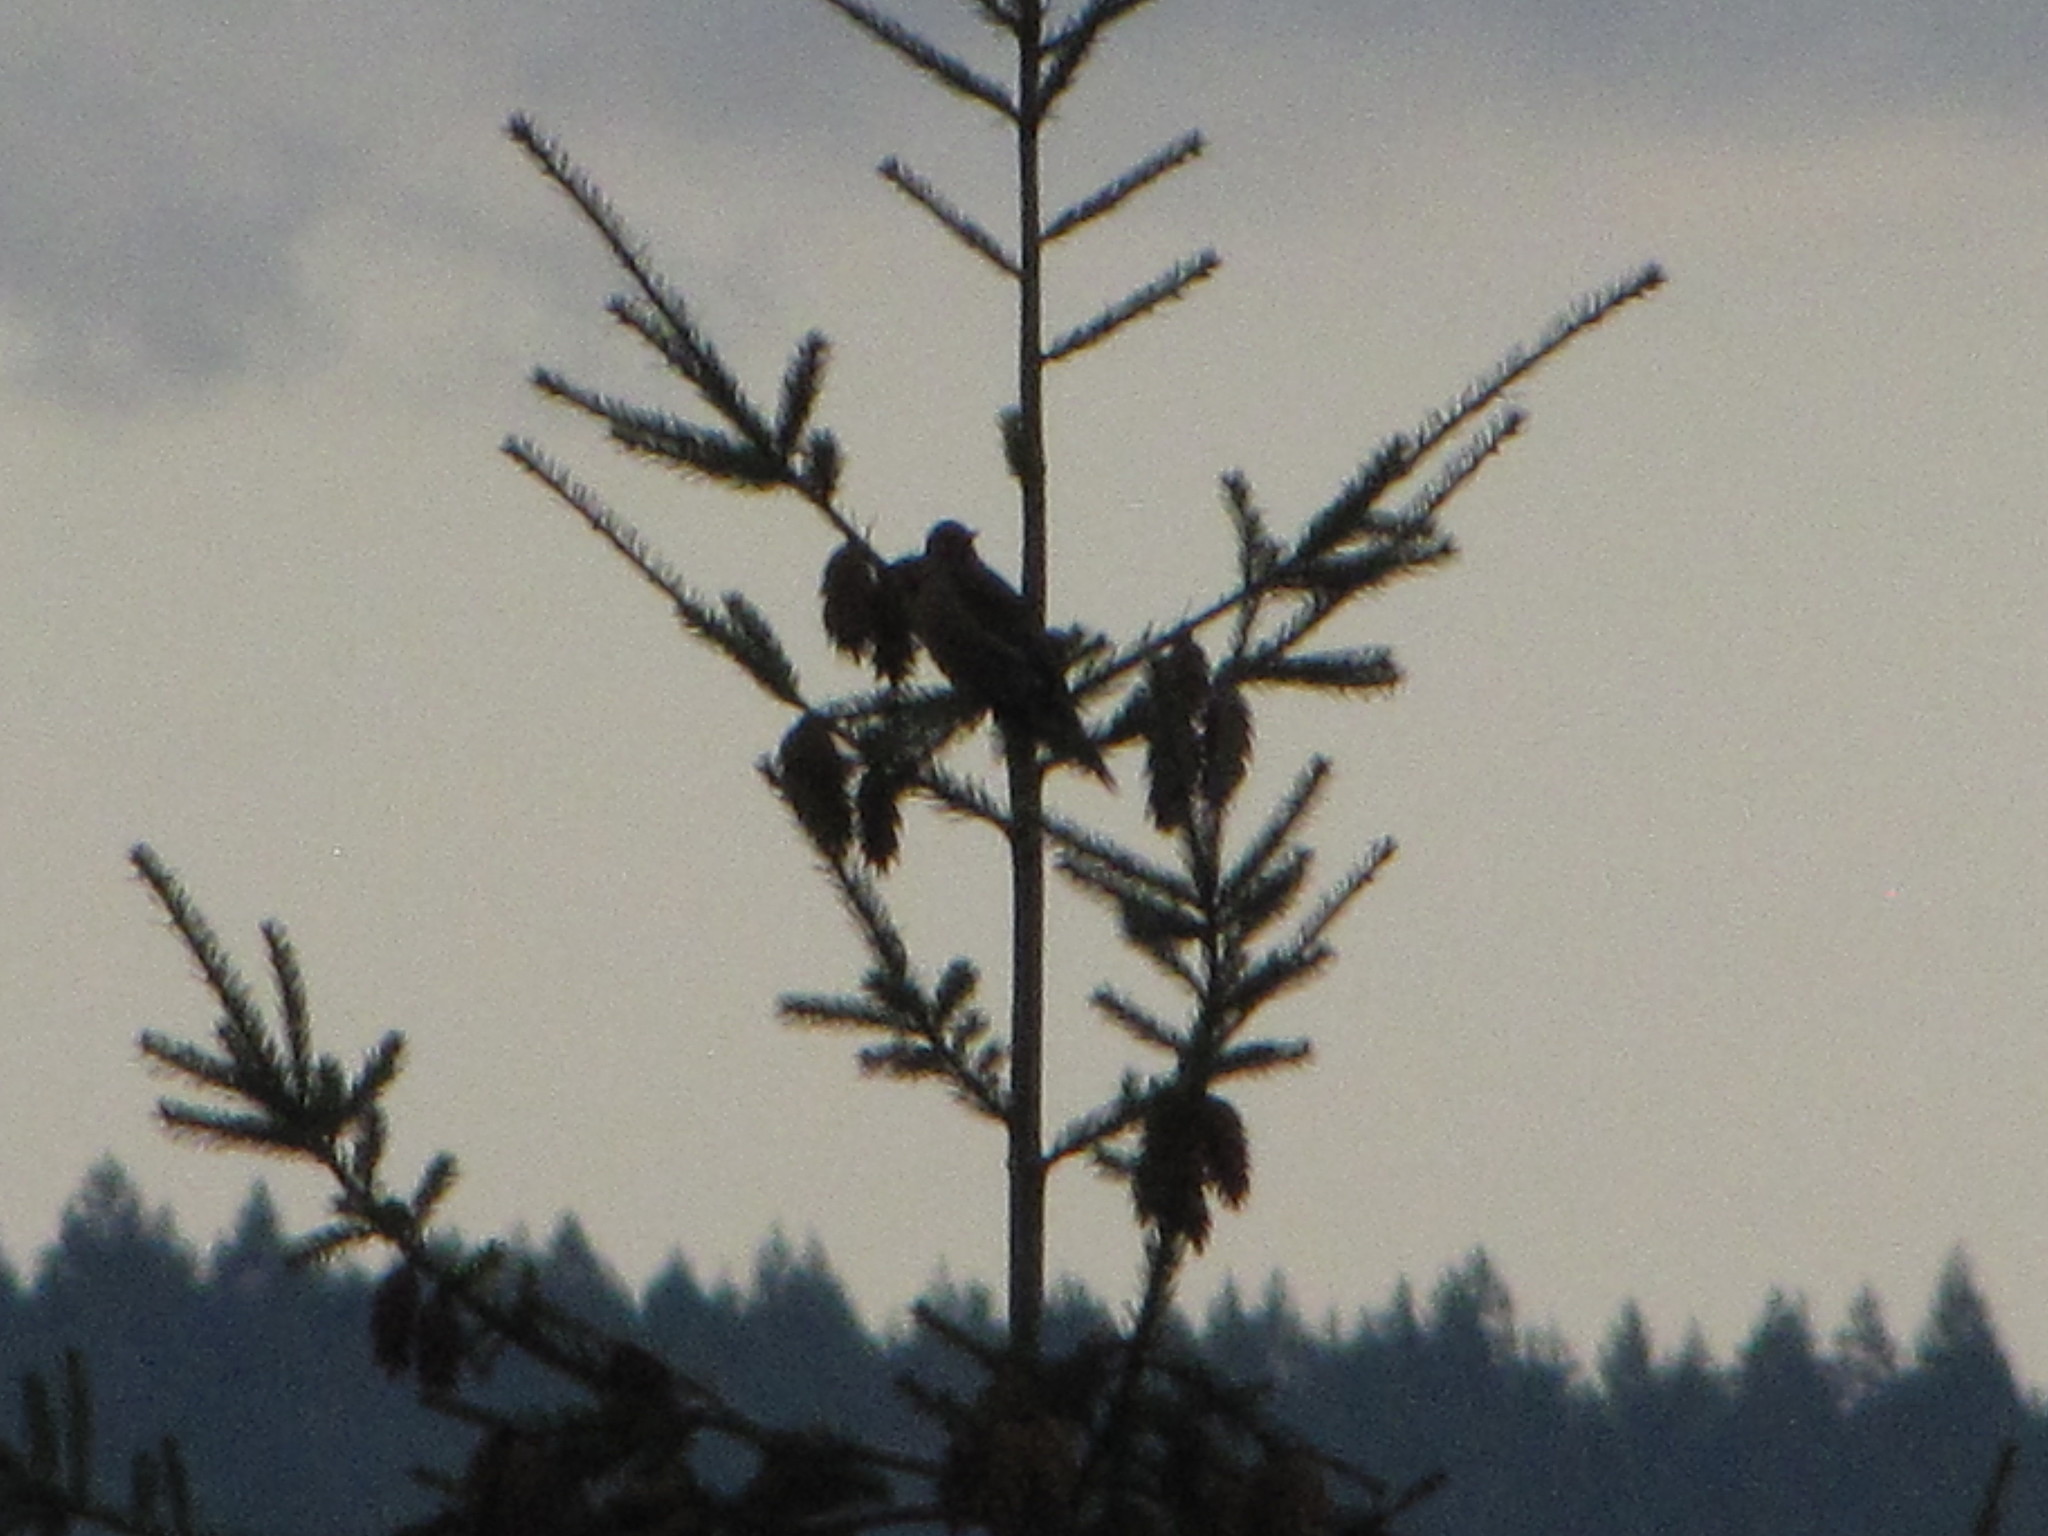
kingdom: Animalia
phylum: Chordata
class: Aves
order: Piciformes
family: Picidae
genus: Colaptes
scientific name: Colaptes auratus
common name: Northern flicker
